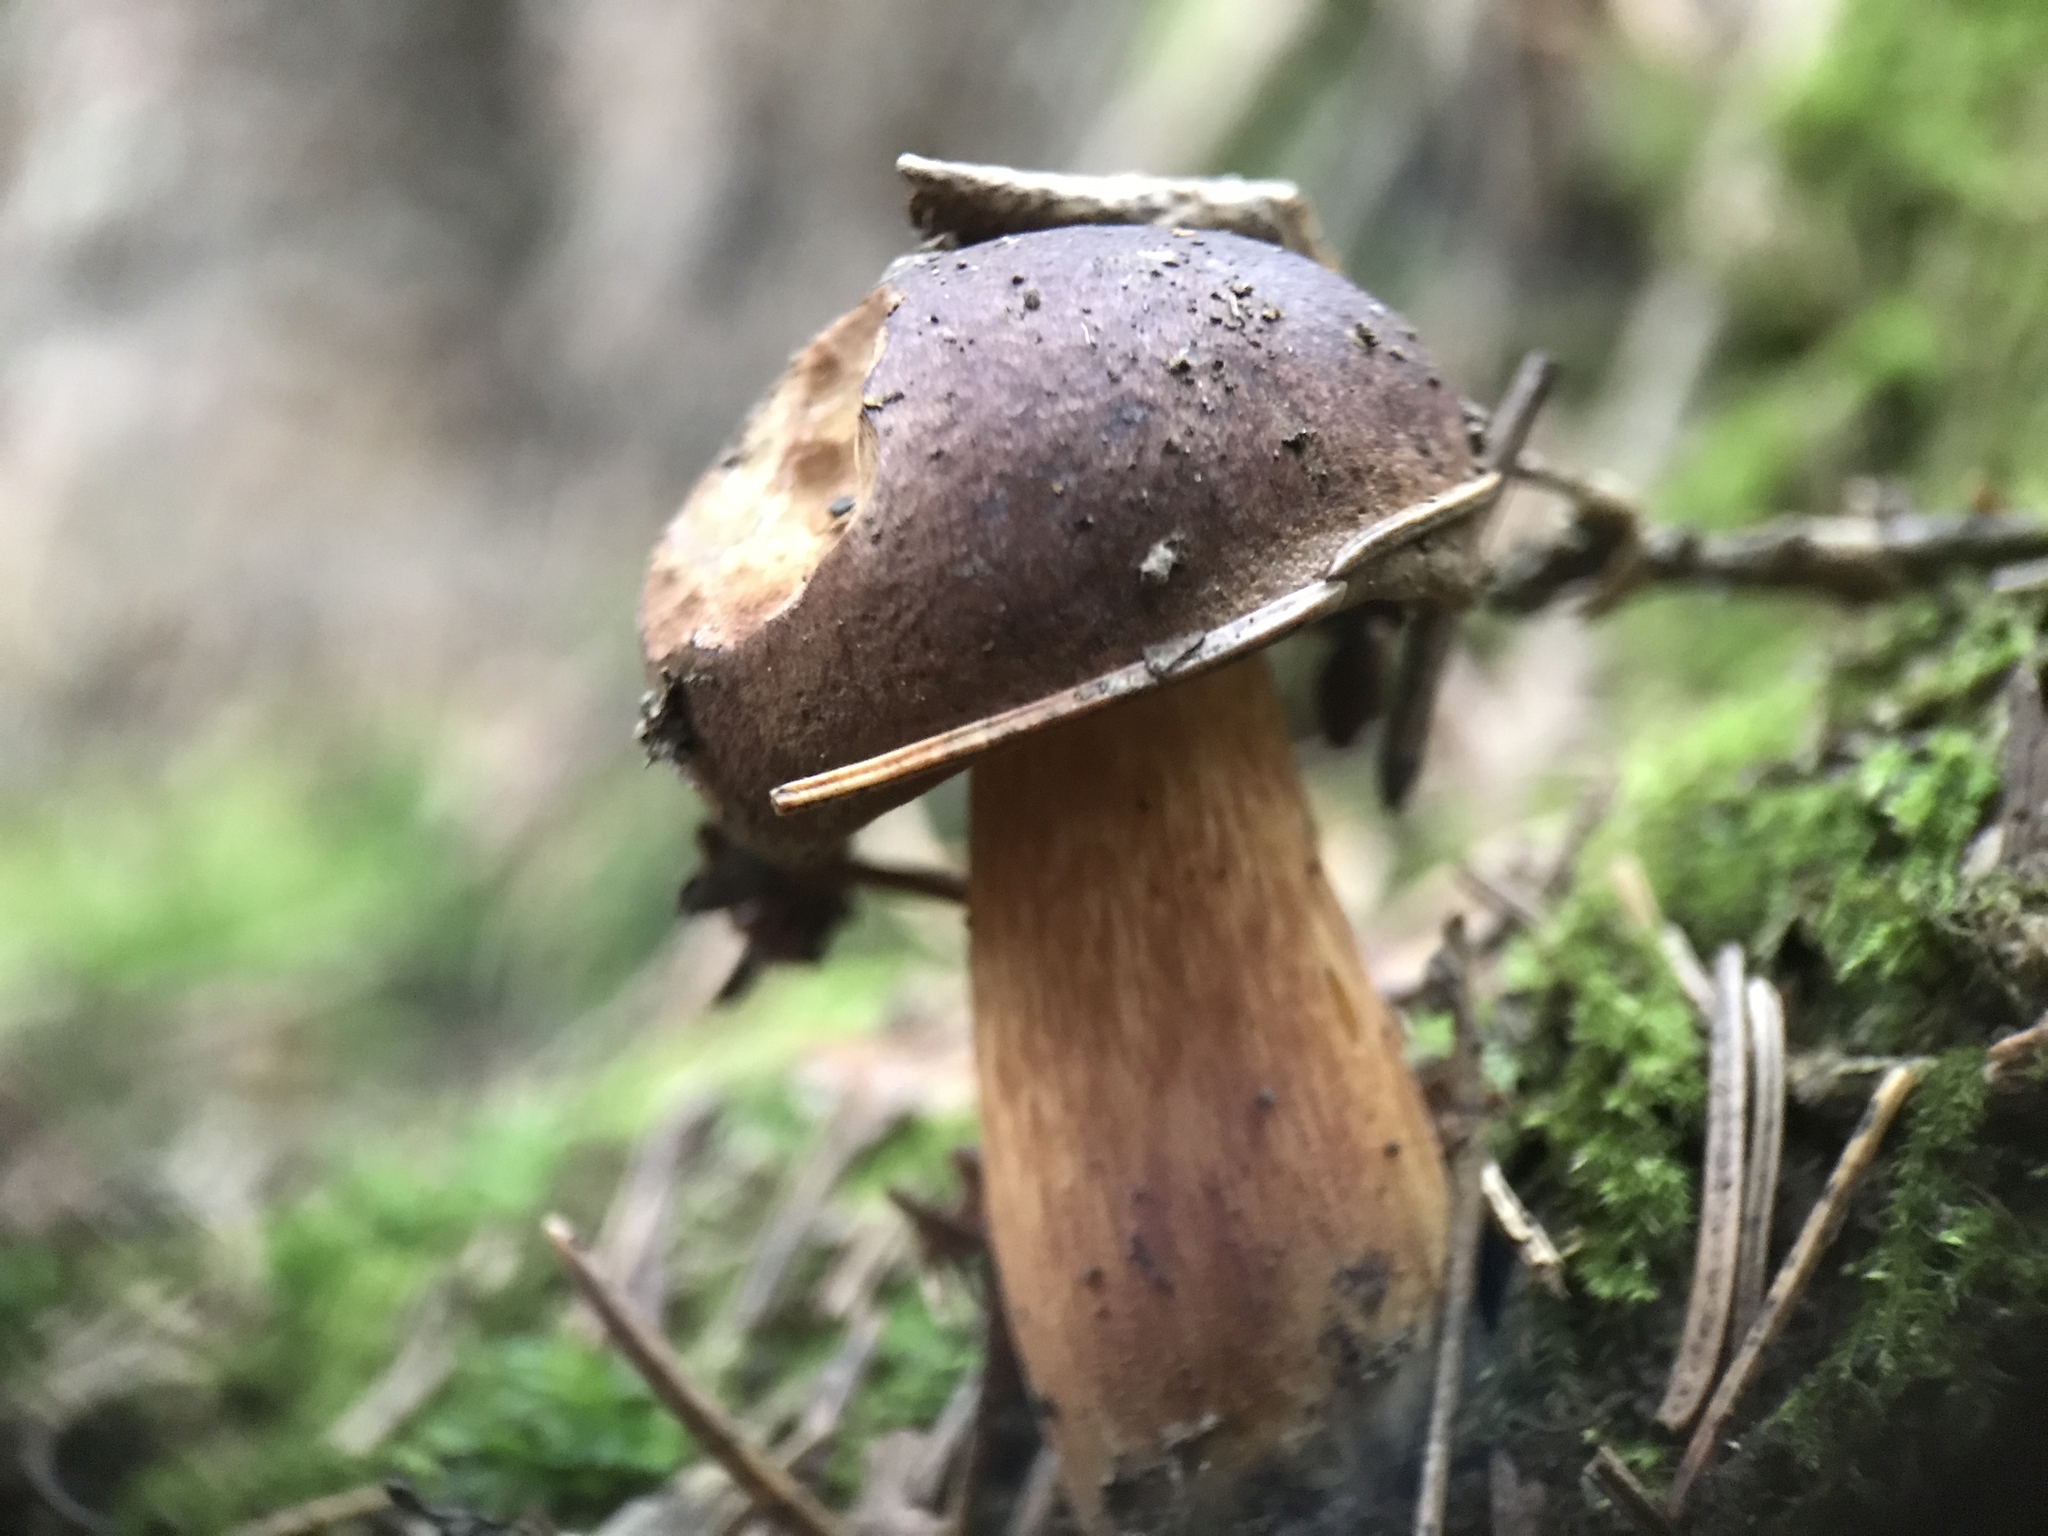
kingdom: Fungi
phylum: Basidiomycota
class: Agaricomycetes
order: Boletales
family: Boletaceae
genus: Imleria
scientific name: Imleria badia
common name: Bay bolete
